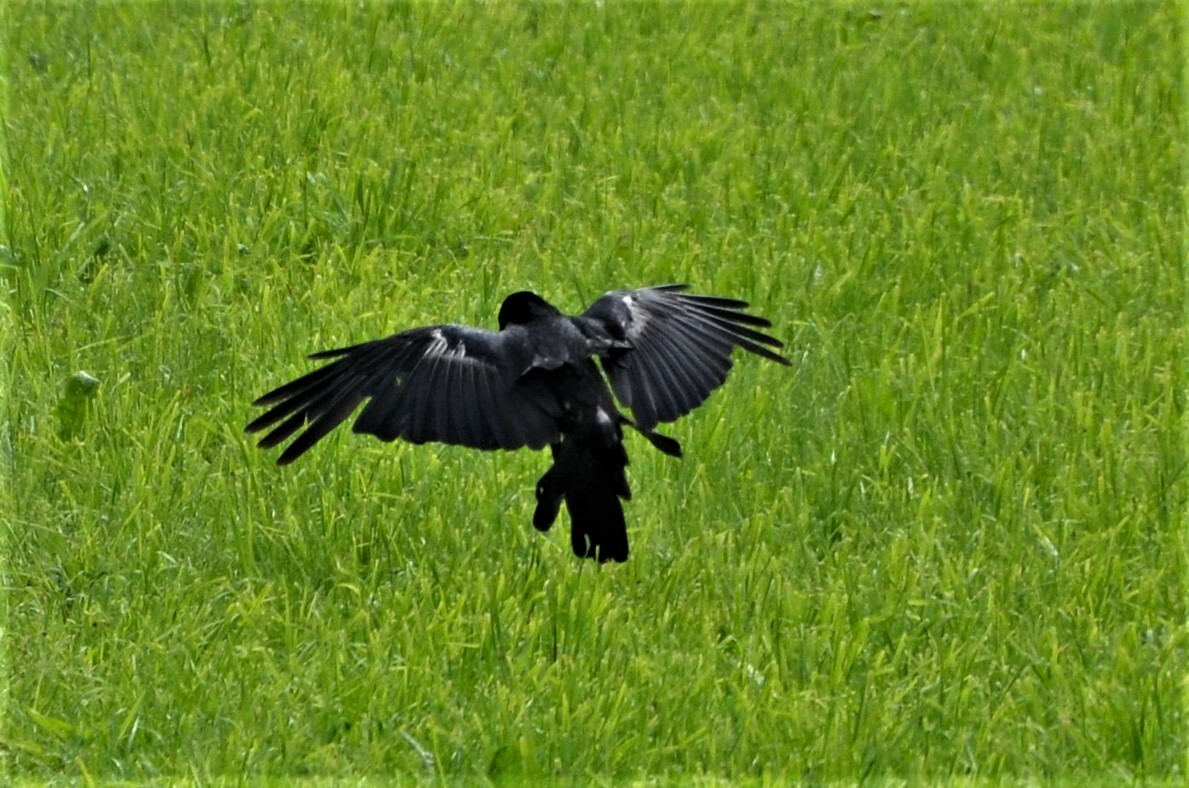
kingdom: Animalia
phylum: Chordata
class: Aves
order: Passeriformes
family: Corvidae
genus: Corvus
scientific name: Corvus
